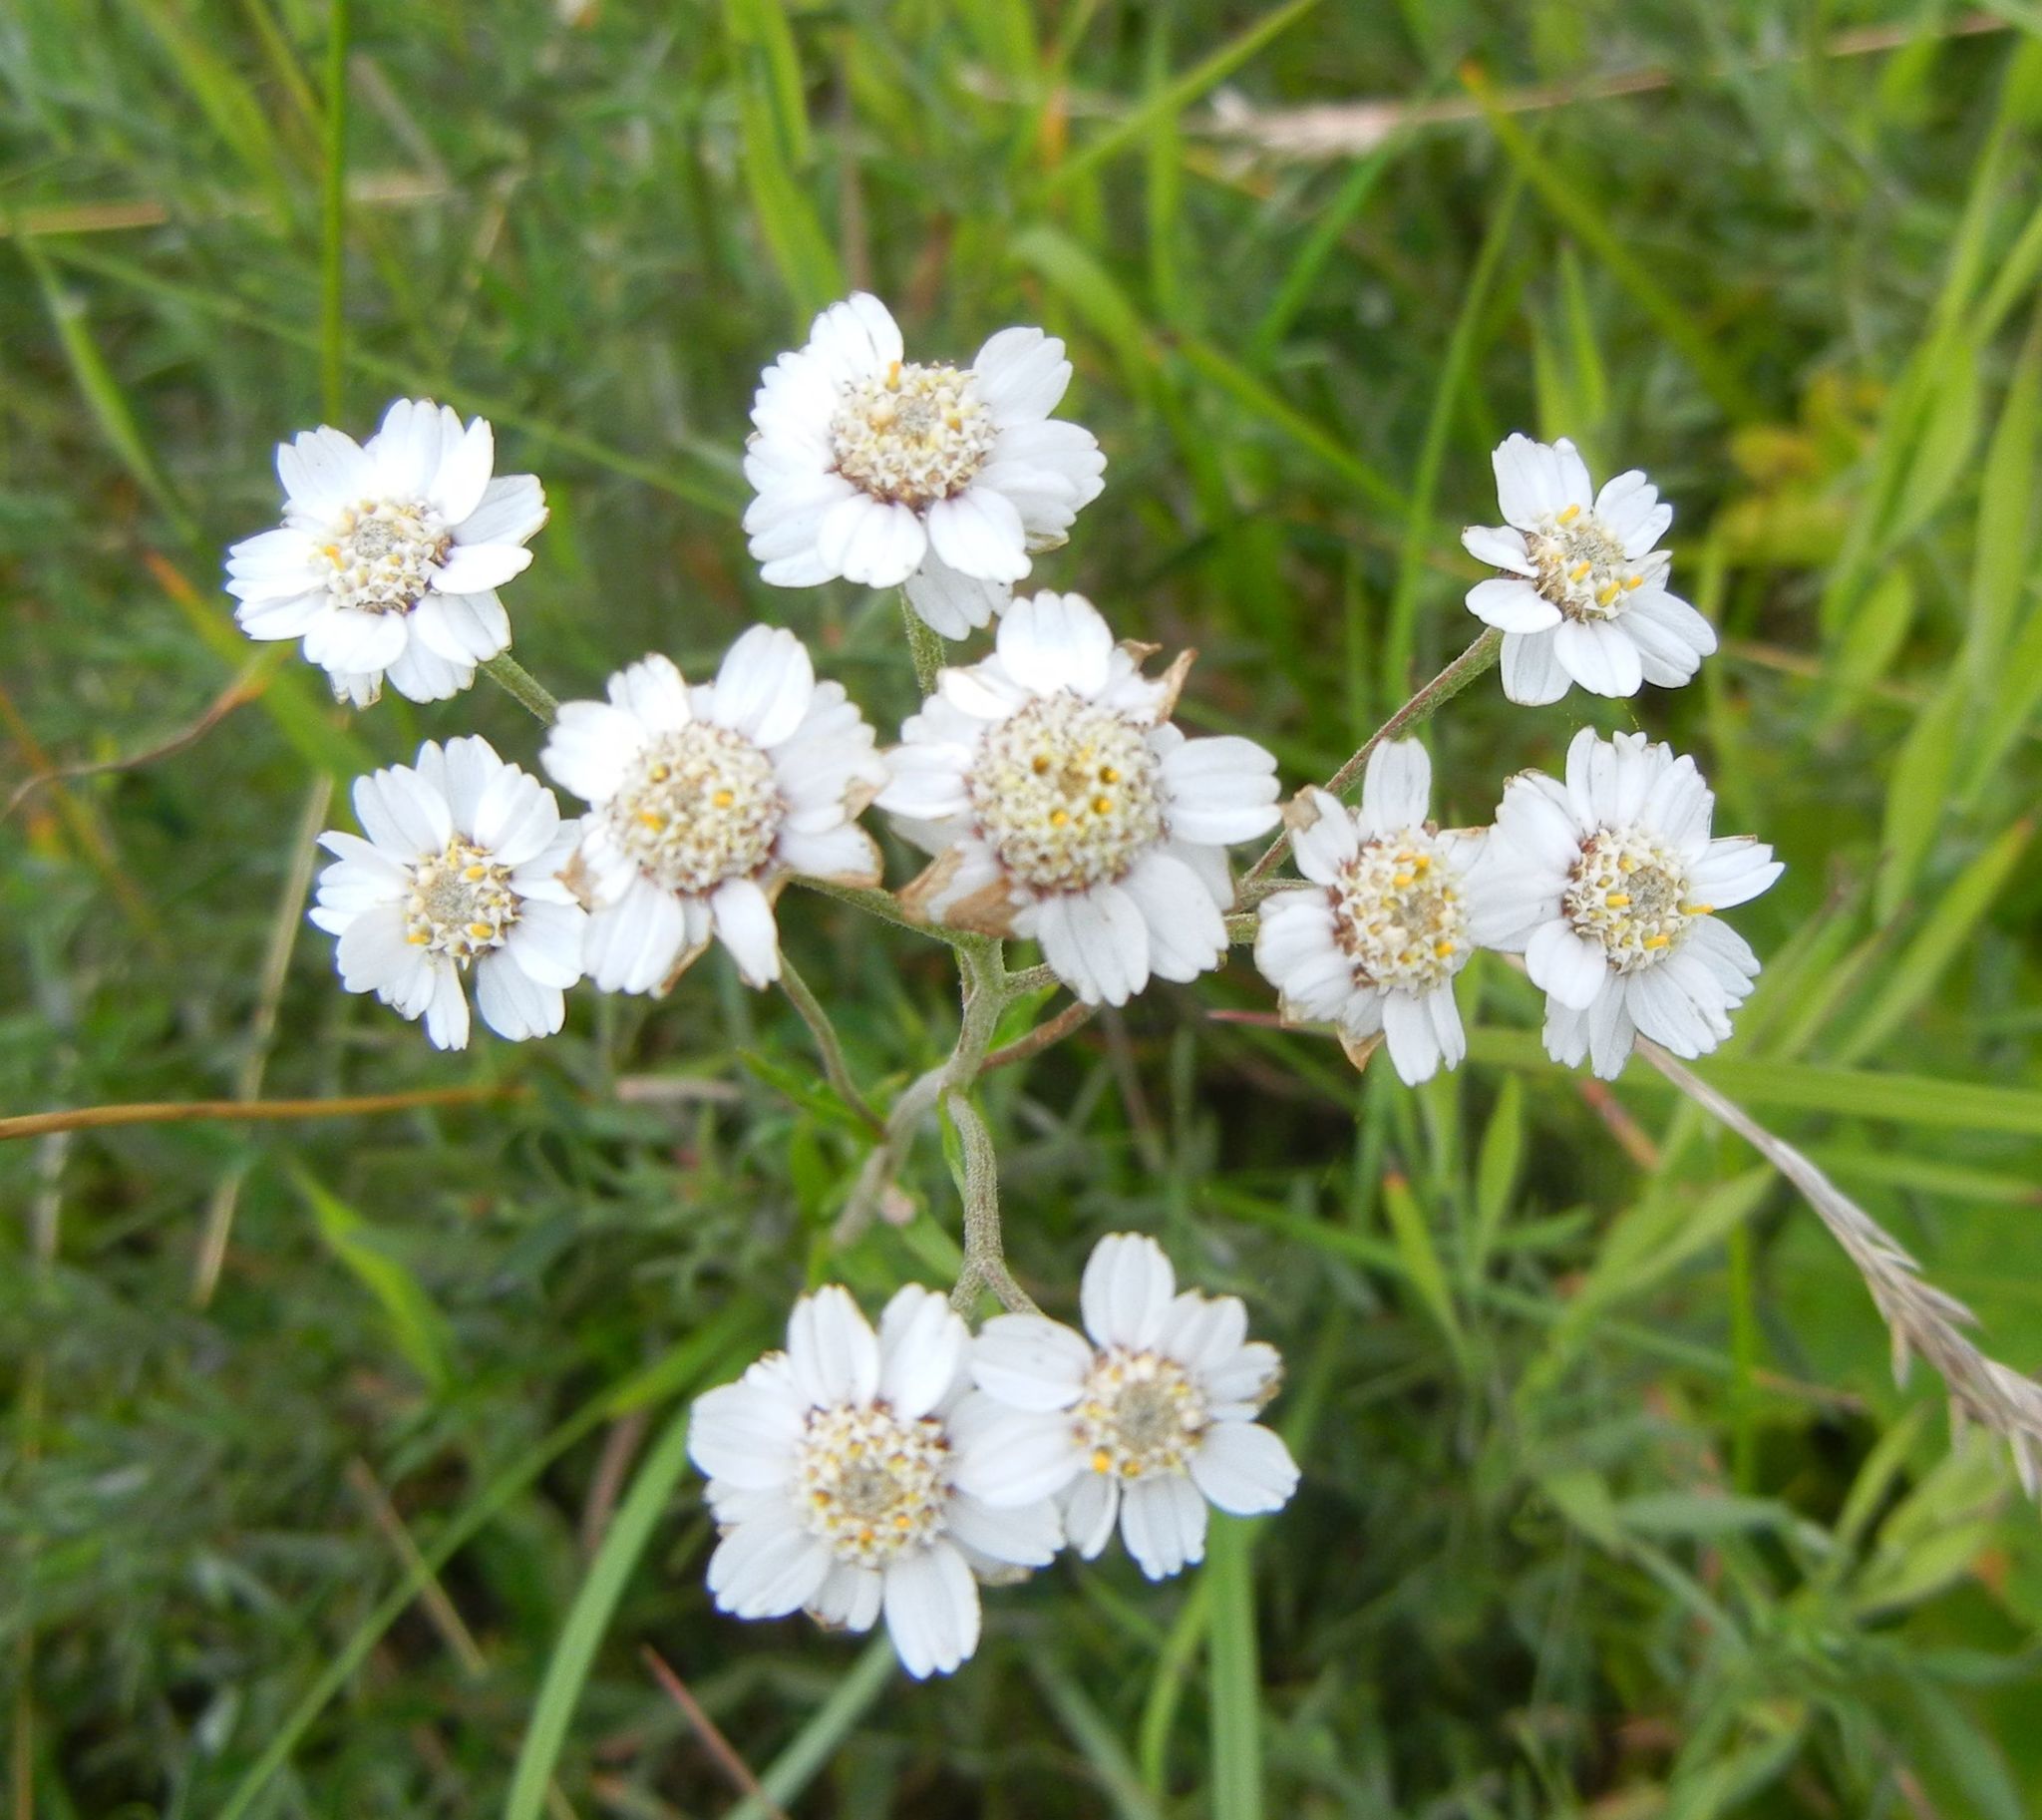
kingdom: Plantae
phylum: Tracheophyta
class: Magnoliopsida
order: Asterales
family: Asteraceae
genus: Achillea
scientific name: Achillea ptarmica
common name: Sneezeweed
